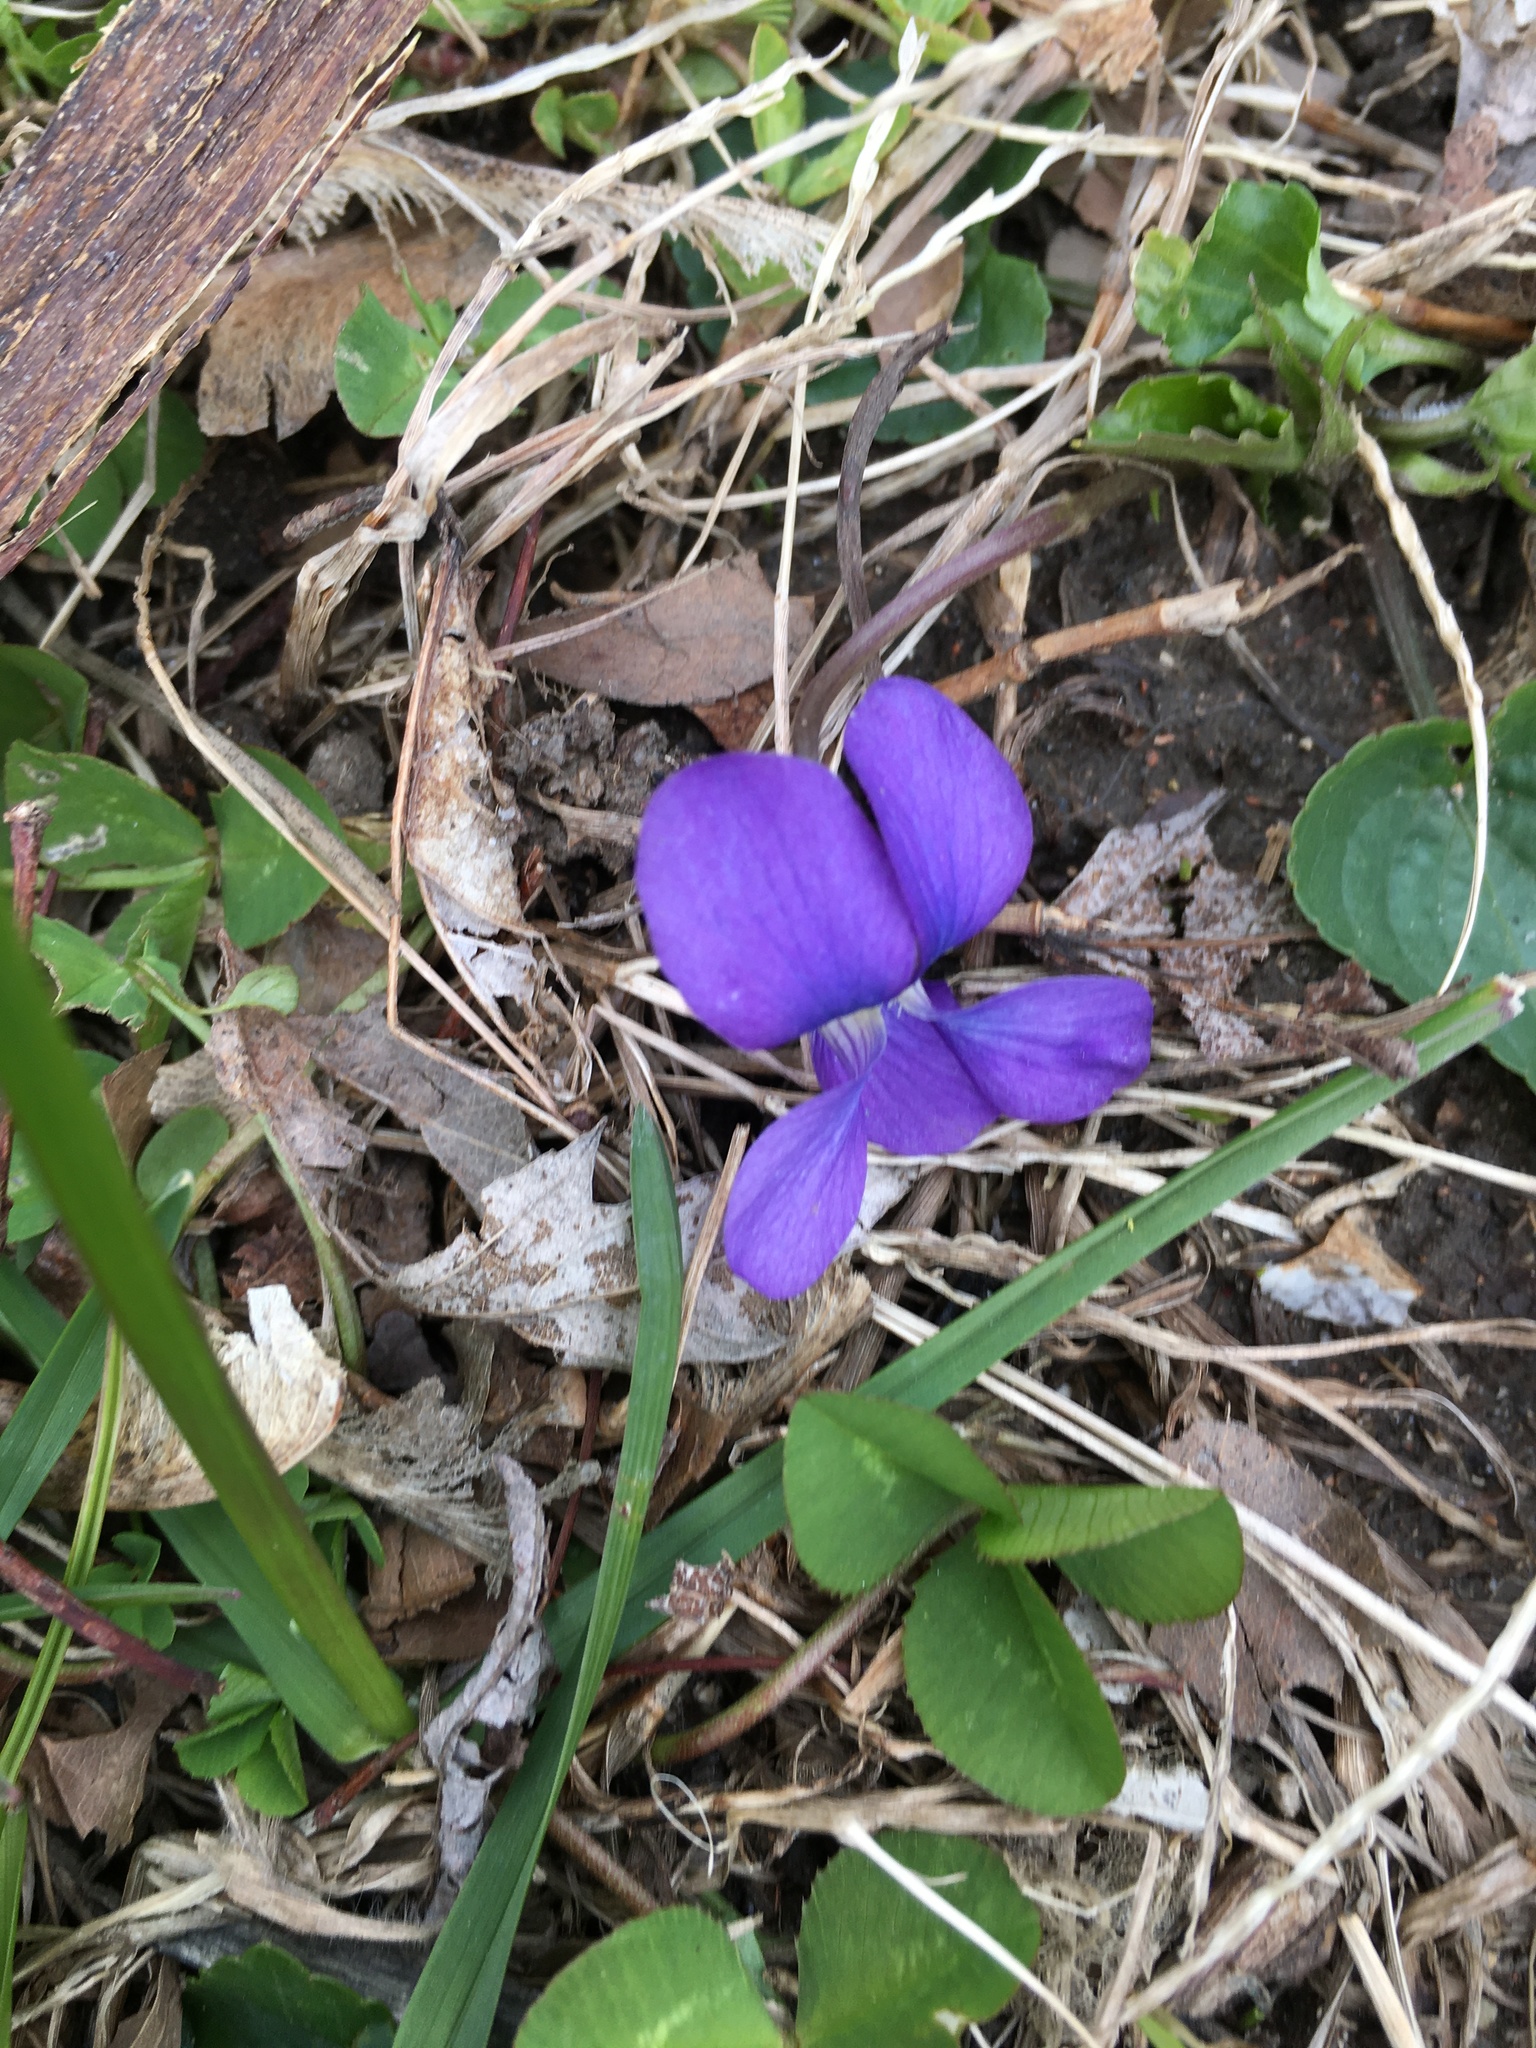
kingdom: Plantae
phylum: Tracheophyta
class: Magnoliopsida
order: Malpighiales
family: Violaceae
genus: Viola
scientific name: Viola sororia
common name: Dooryard violet
